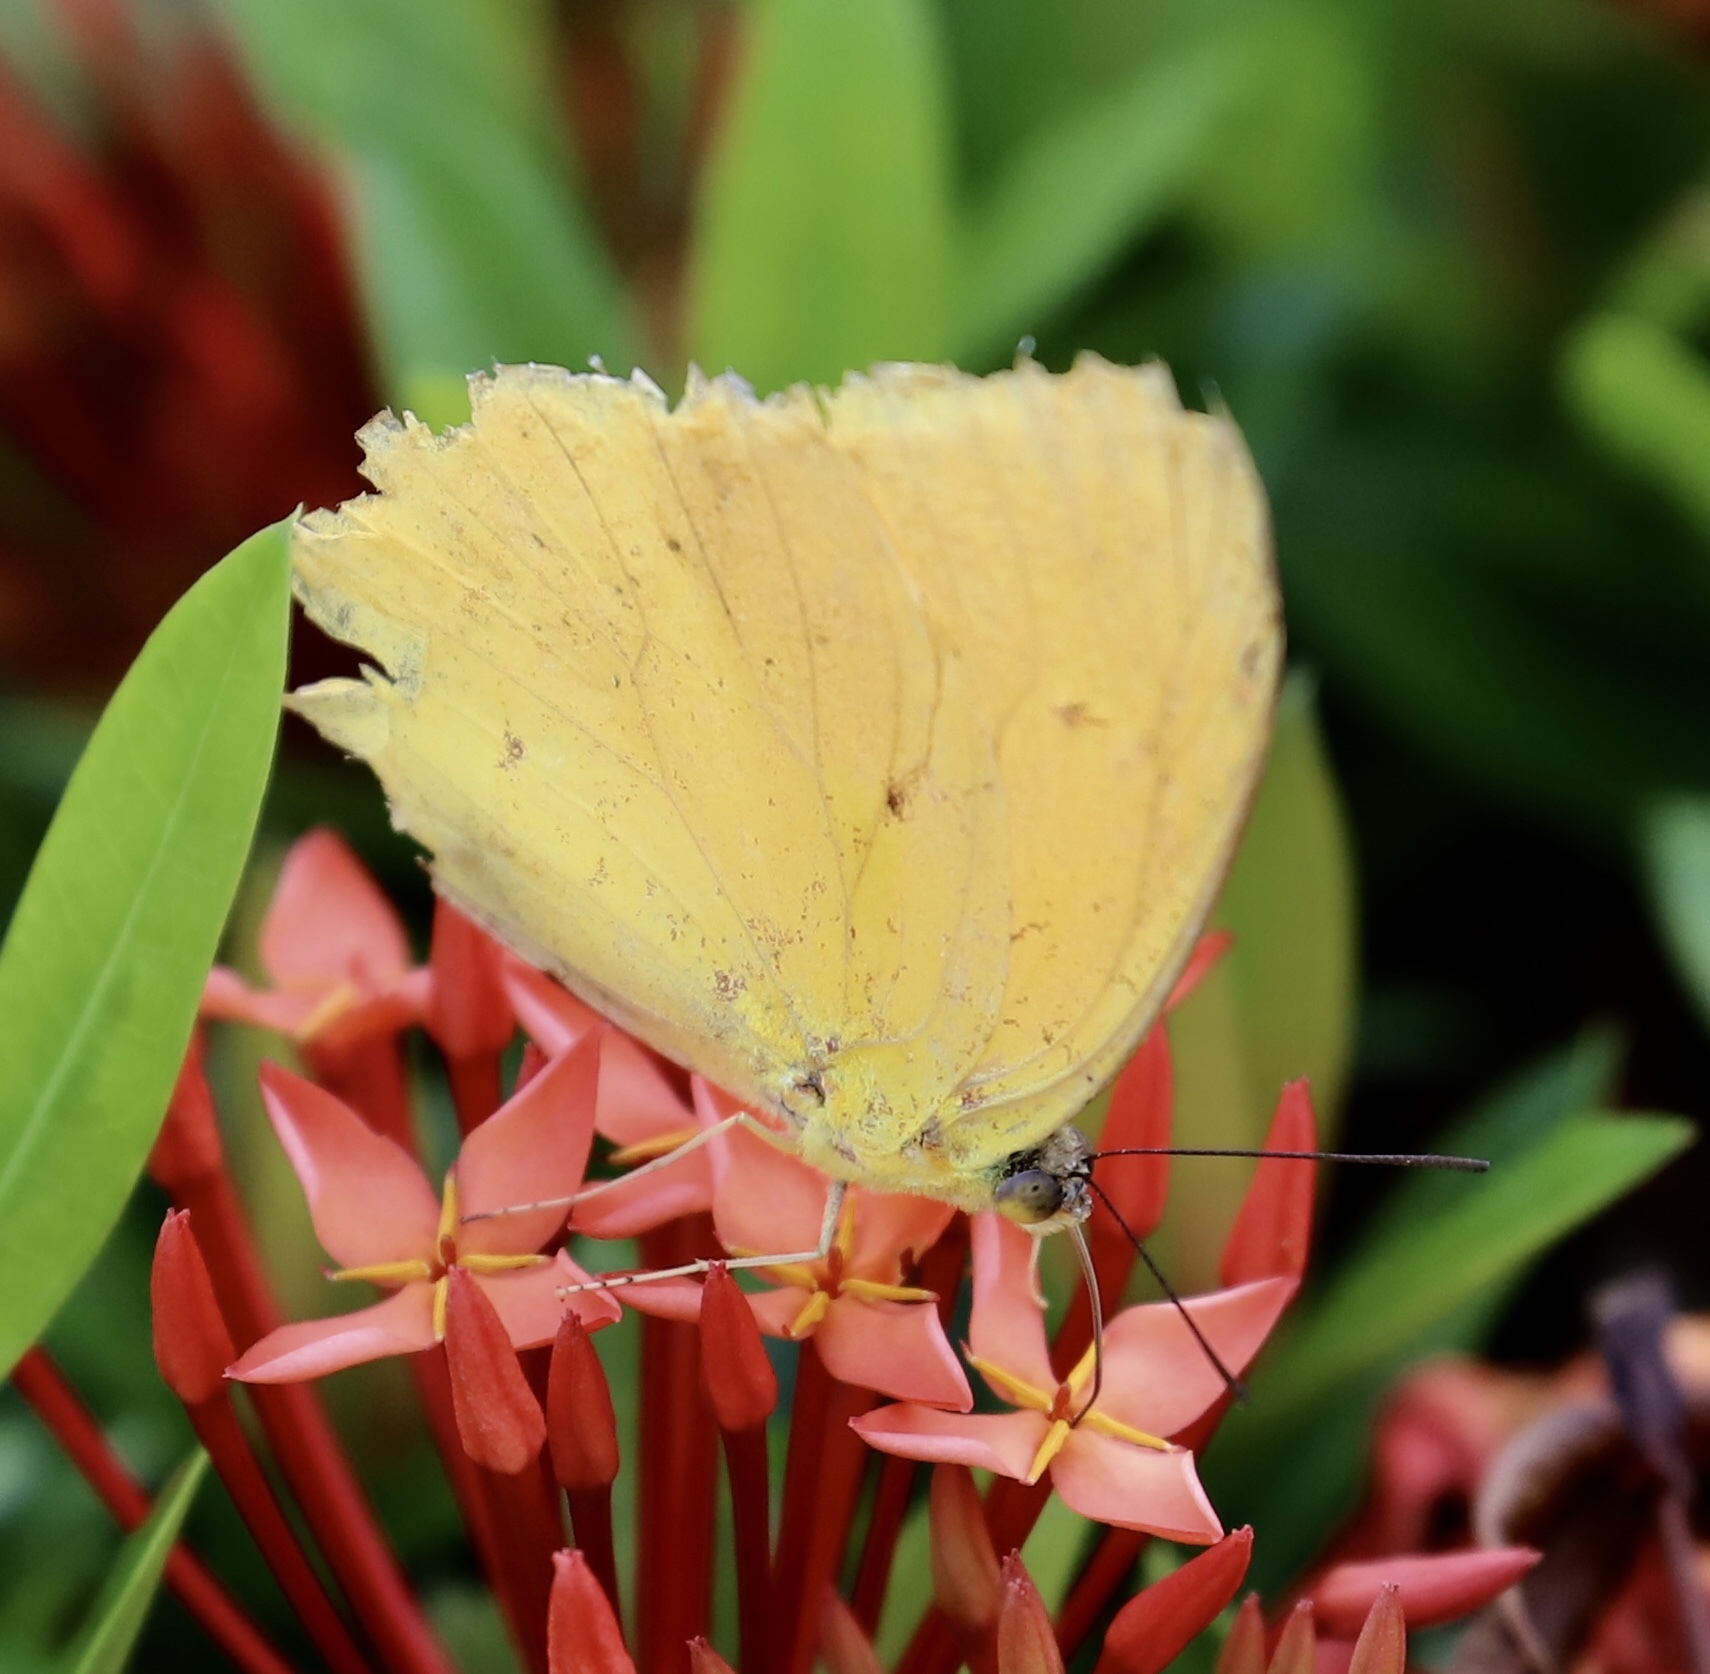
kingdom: Animalia
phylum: Arthropoda
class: Insecta
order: Lepidoptera
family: Pieridae
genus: Phoebis
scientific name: Phoebis sennae
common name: Cloudless sulphur
